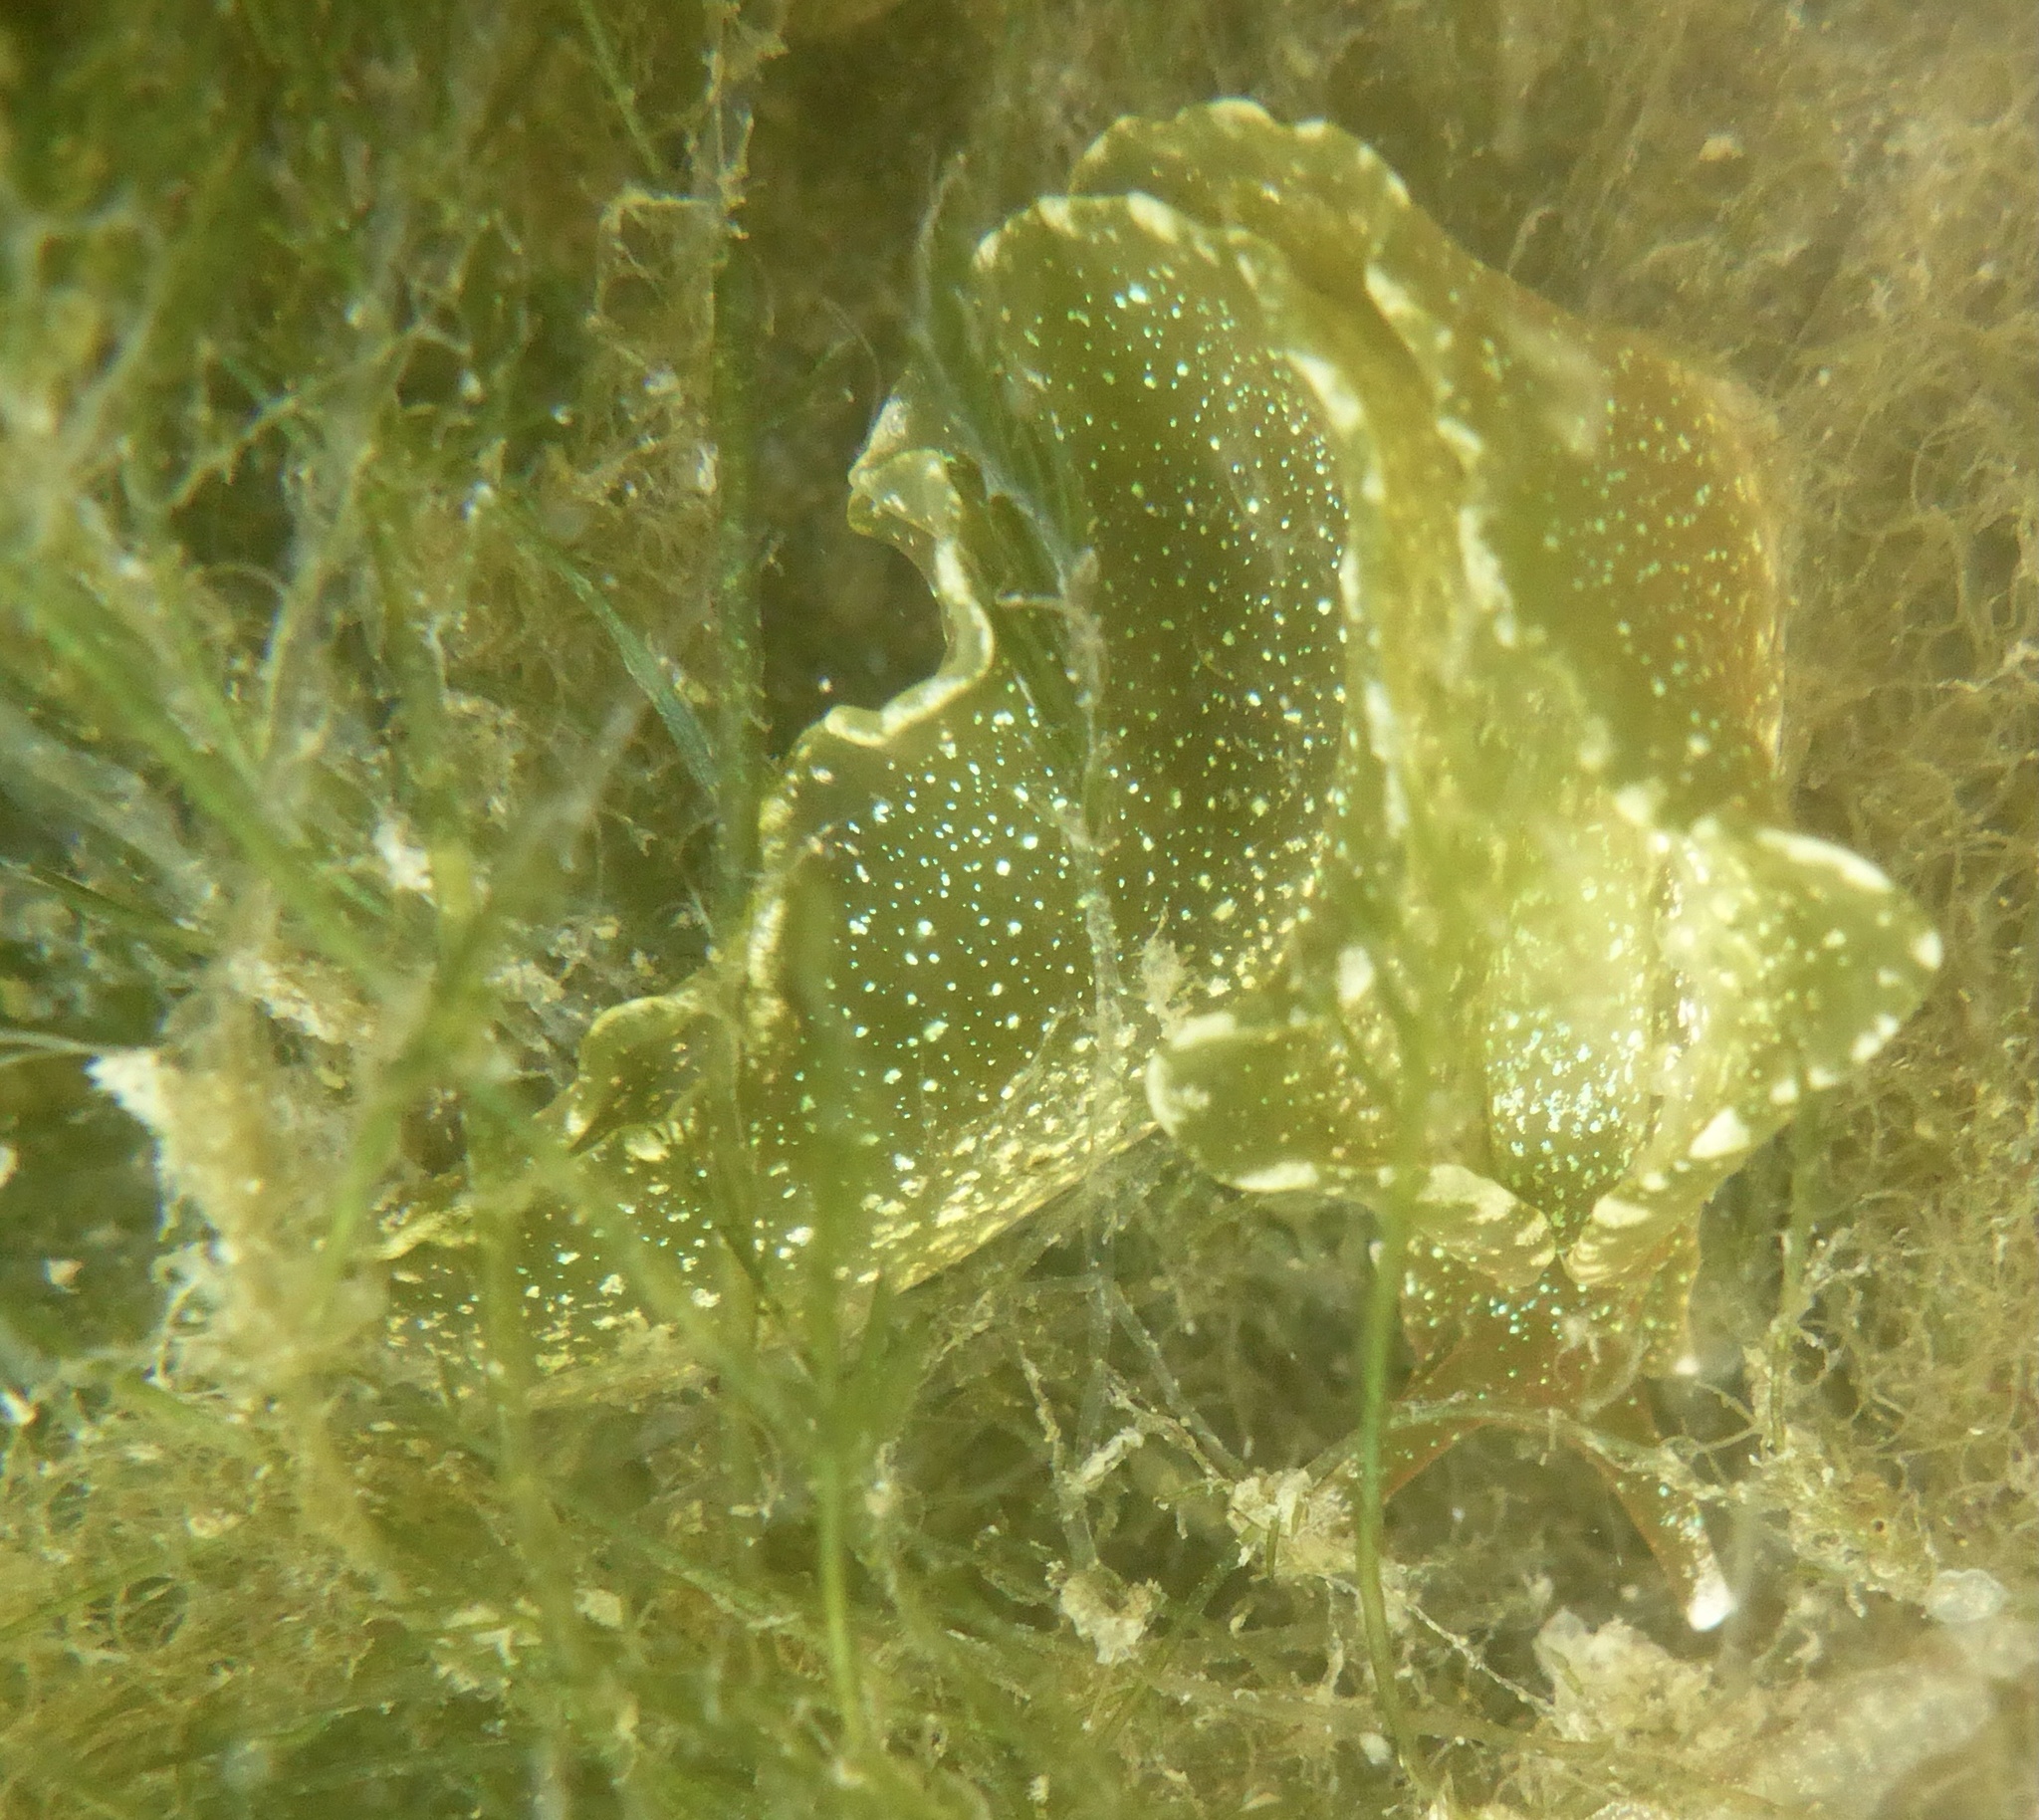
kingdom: Animalia
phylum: Mollusca
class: Gastropoda
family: Plakobranchidae
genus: Elysia
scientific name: Elysia hedgpethi
